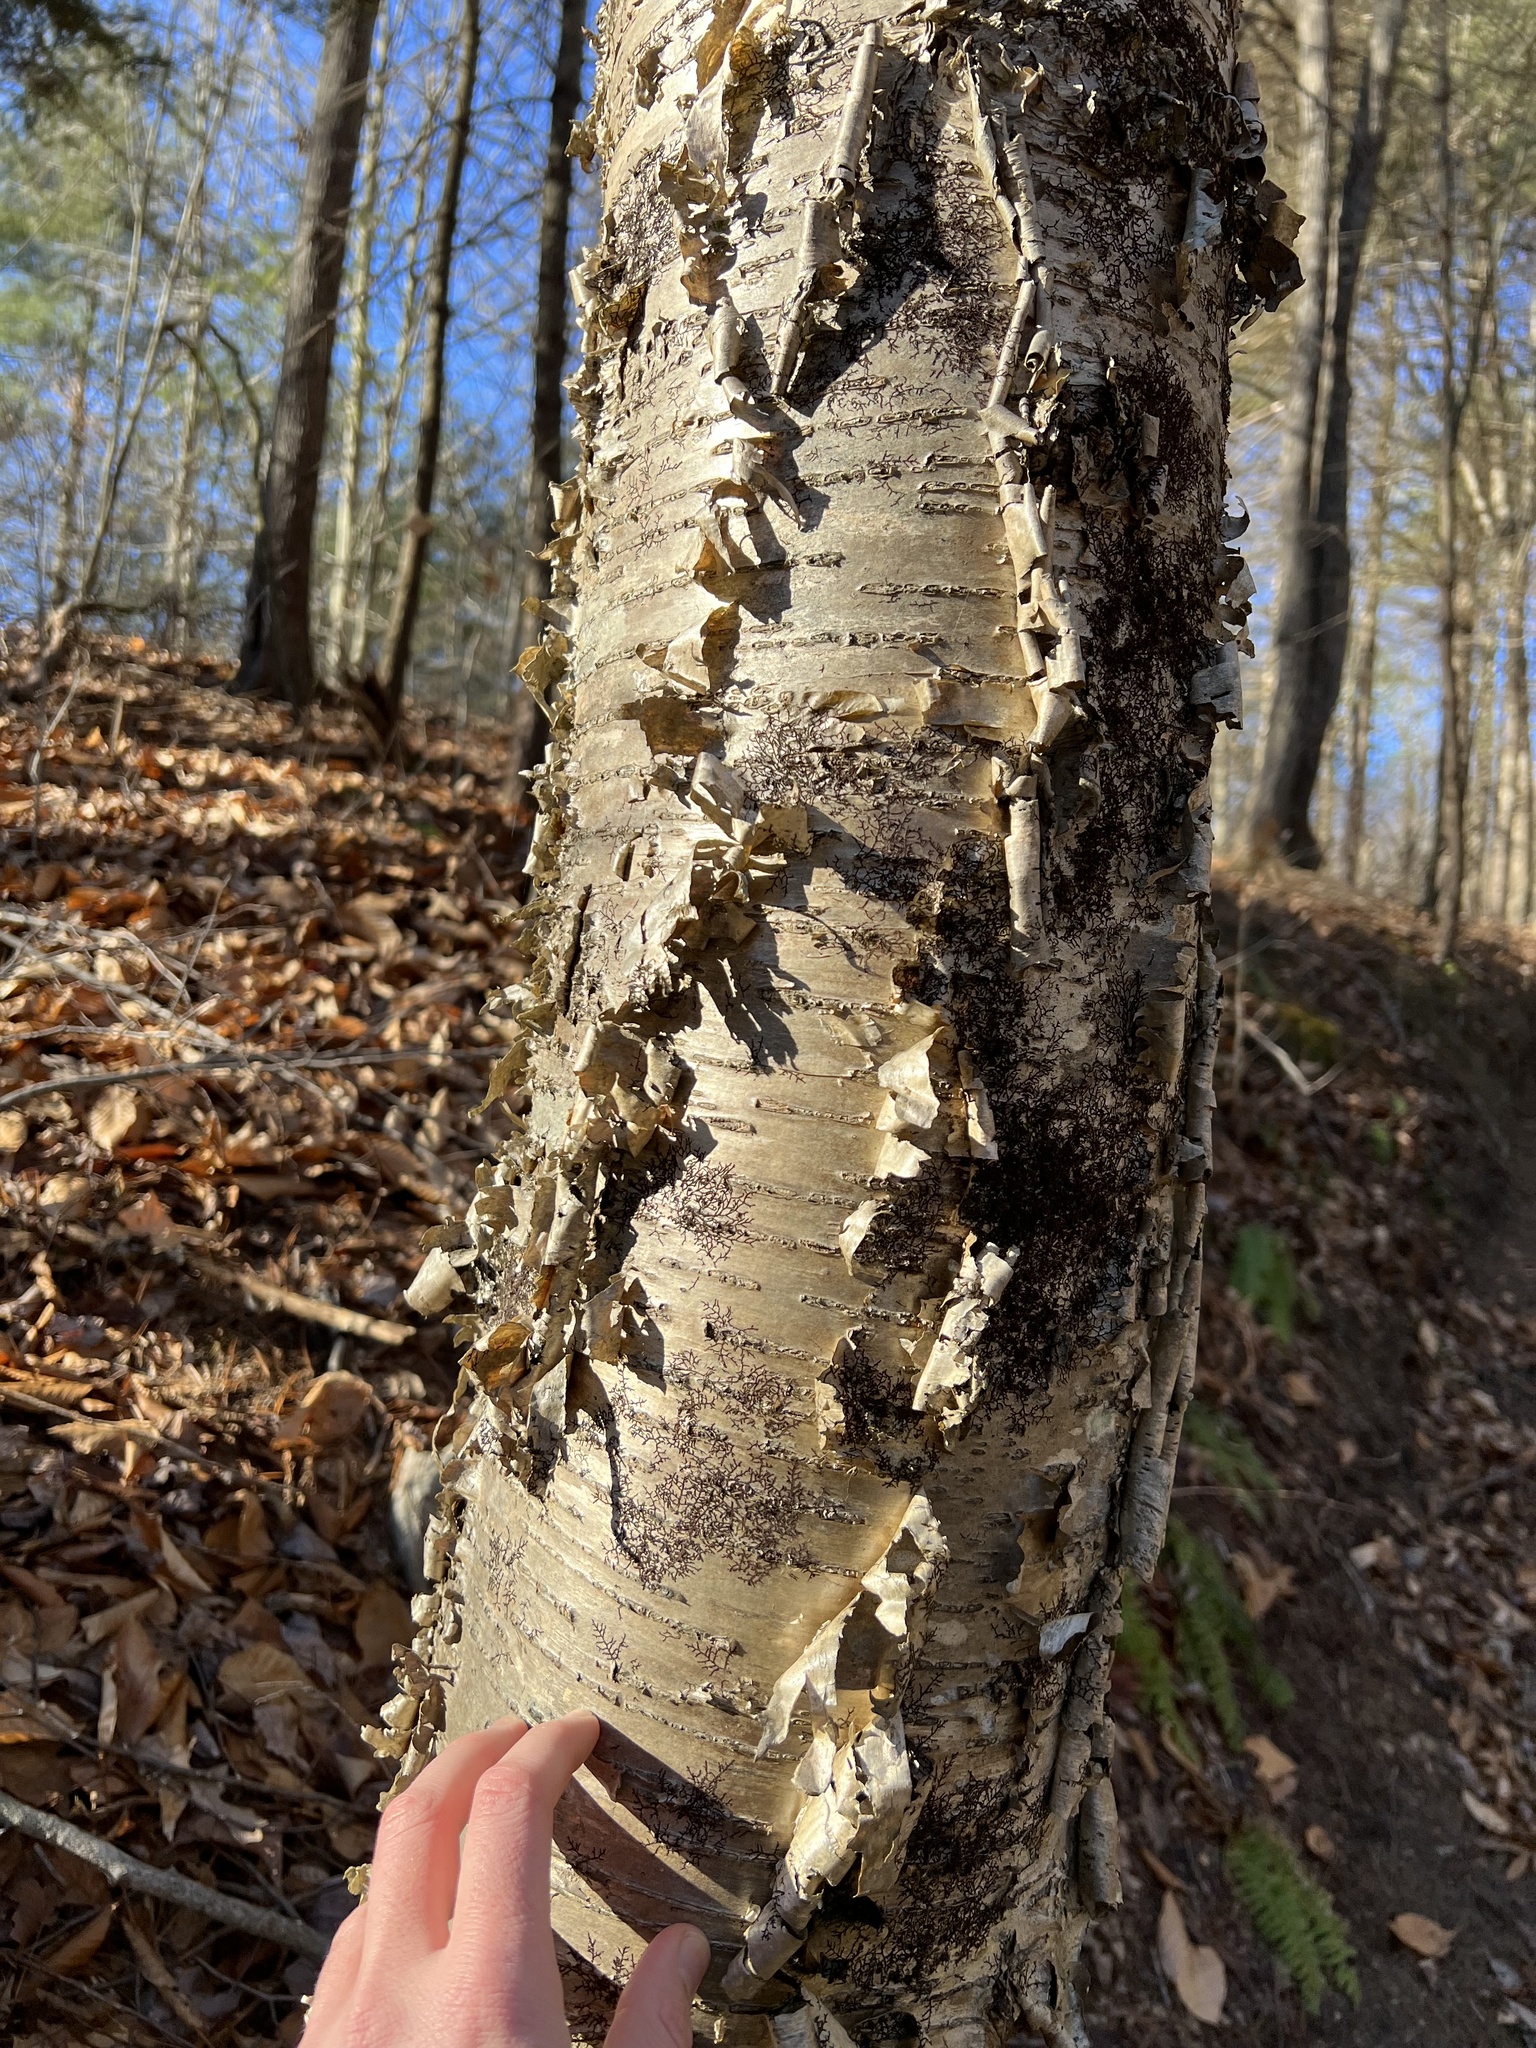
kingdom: Plantae
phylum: Tracheophyta
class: Magnoliopsida
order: Fagales
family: Betulaceae
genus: Betula
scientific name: Betula alleghaniensis
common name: Yellow birch
